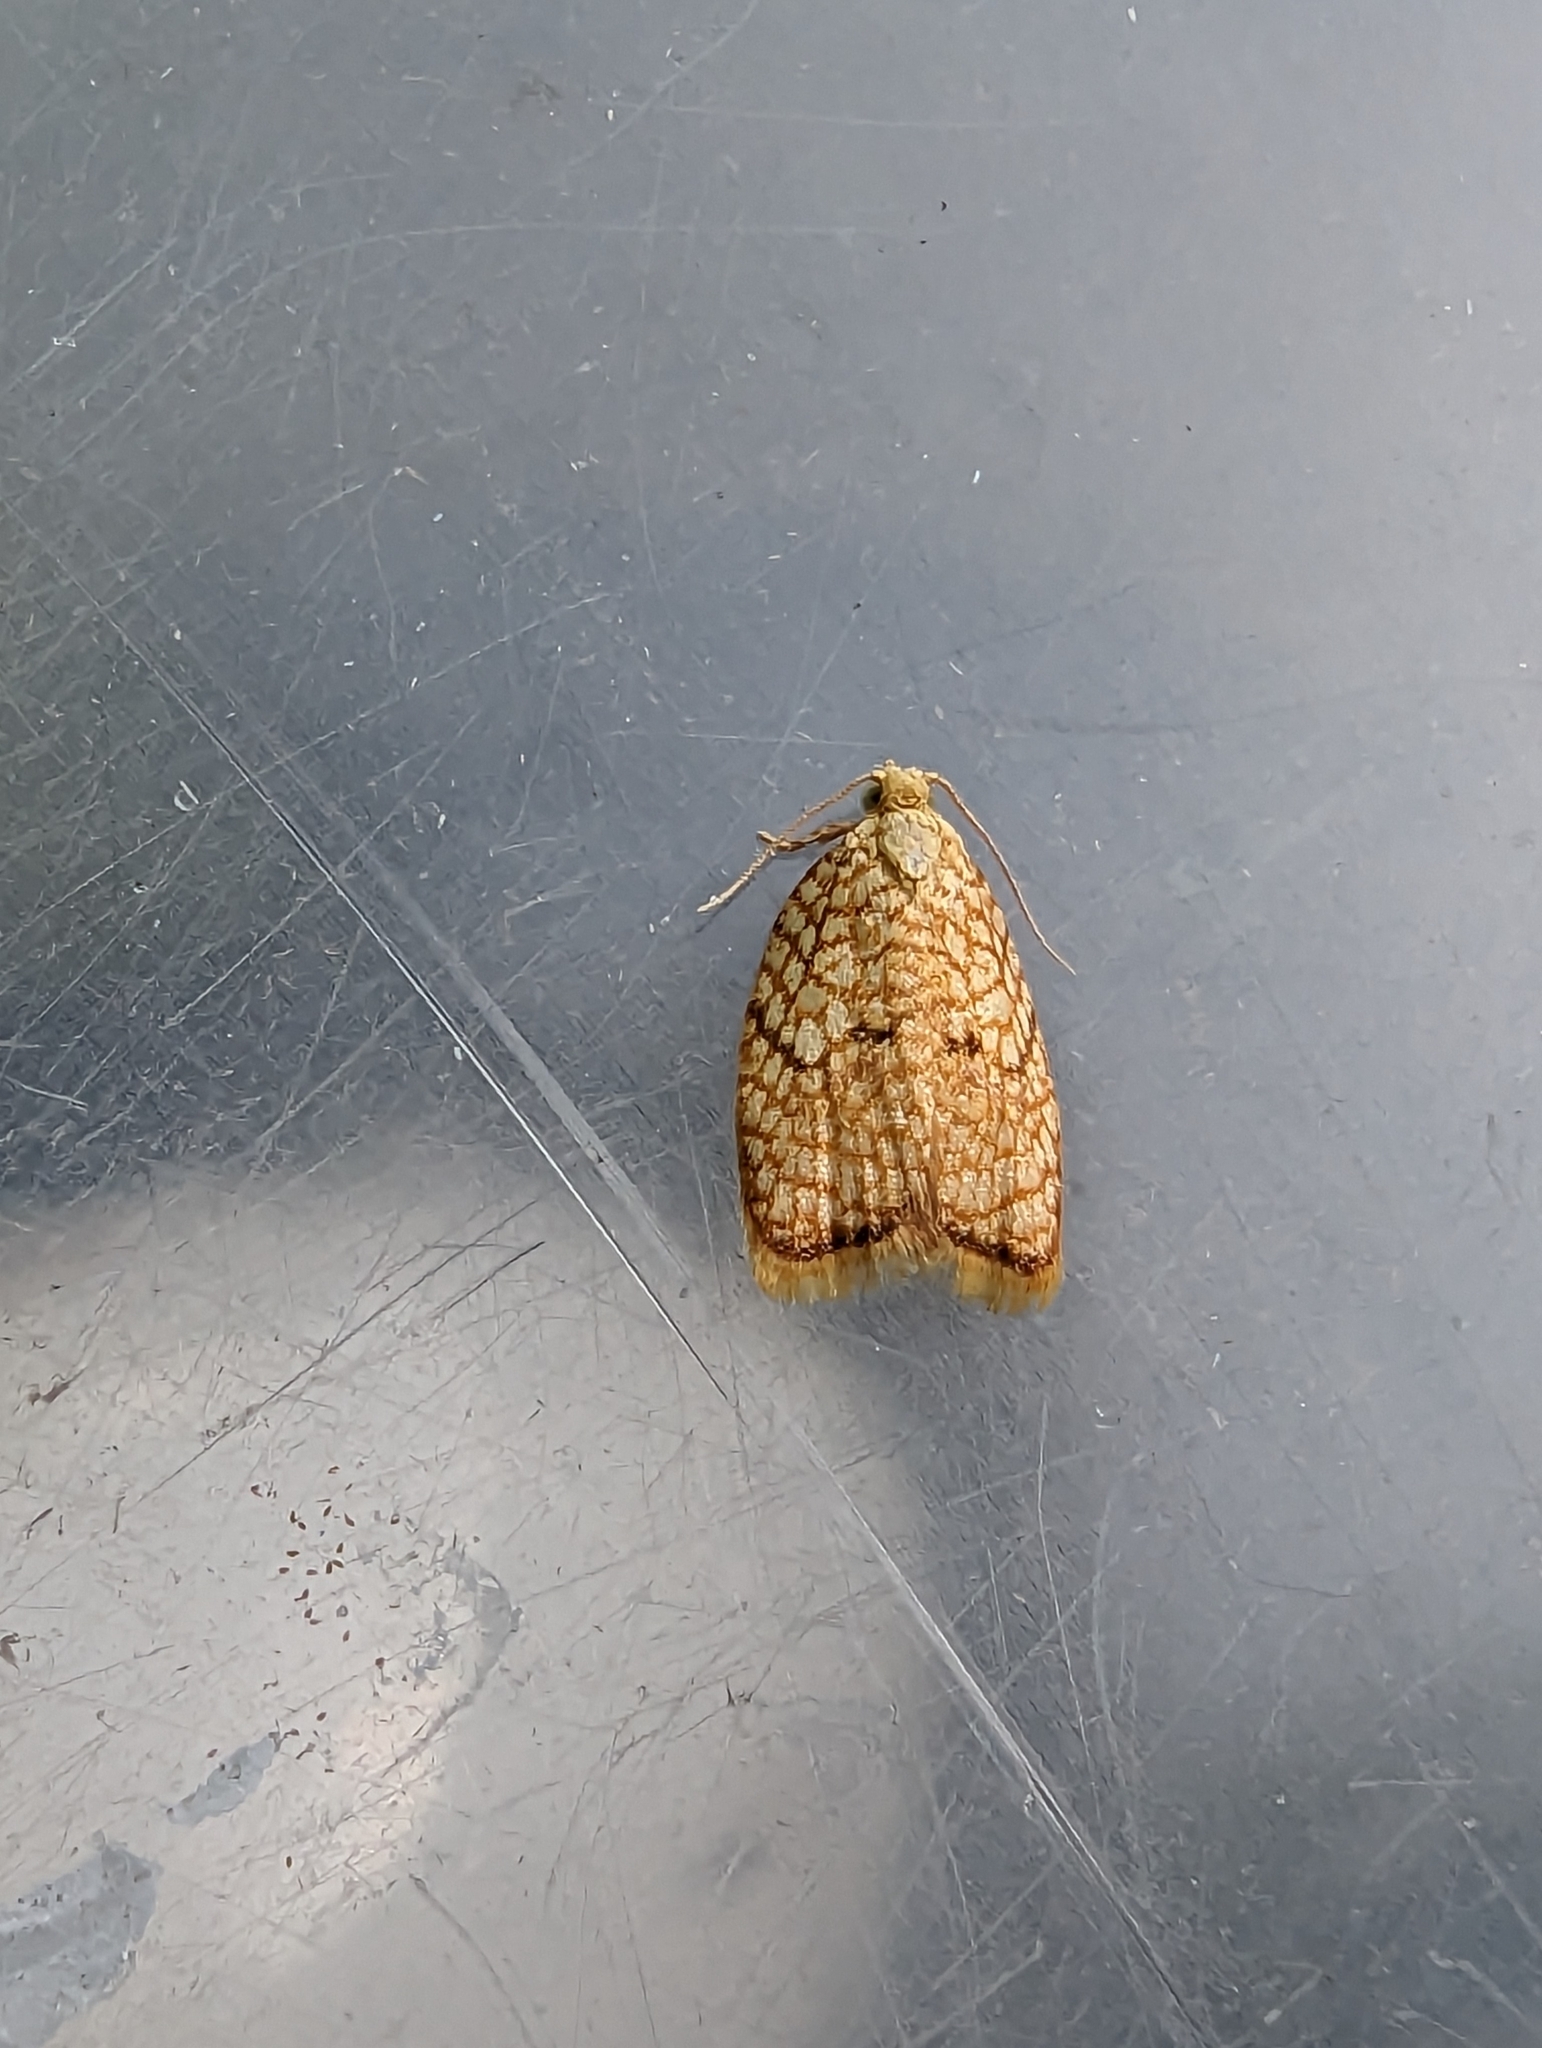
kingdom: Animalia
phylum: Arthropoda
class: Insecta
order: Lepidoptera
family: Tortricidae
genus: Acleris
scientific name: Acleris forsskaleana
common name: Maple button
